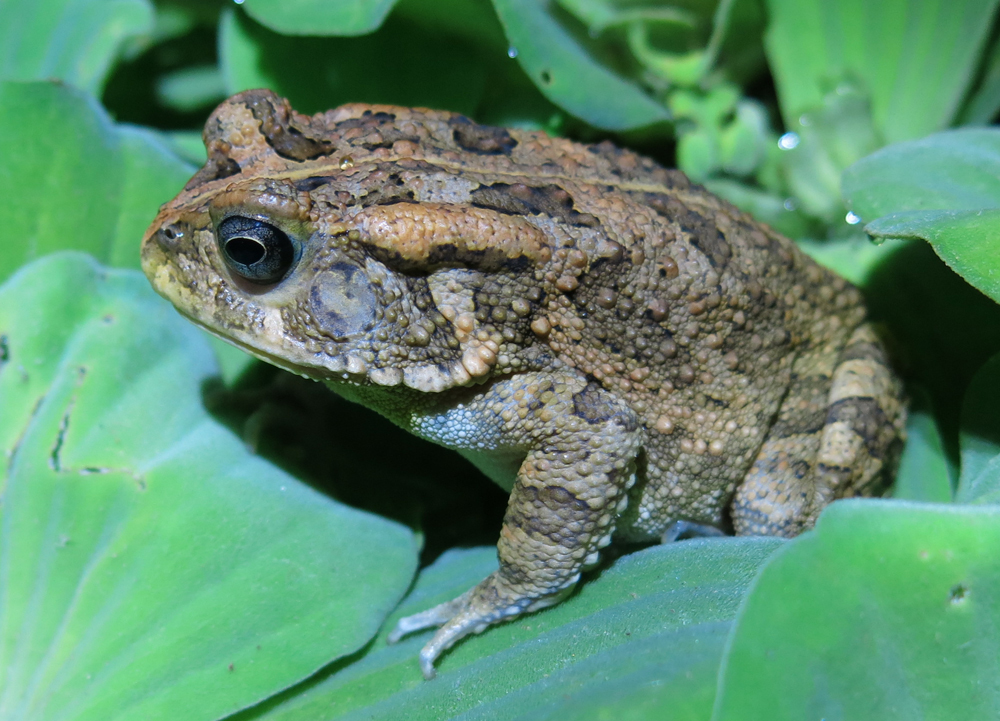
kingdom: Animalia
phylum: Chordata
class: Amphibia
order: Anura
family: Bufonidae
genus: Sclerophrys
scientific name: Sclerophrys gutturalis
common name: African common toad
